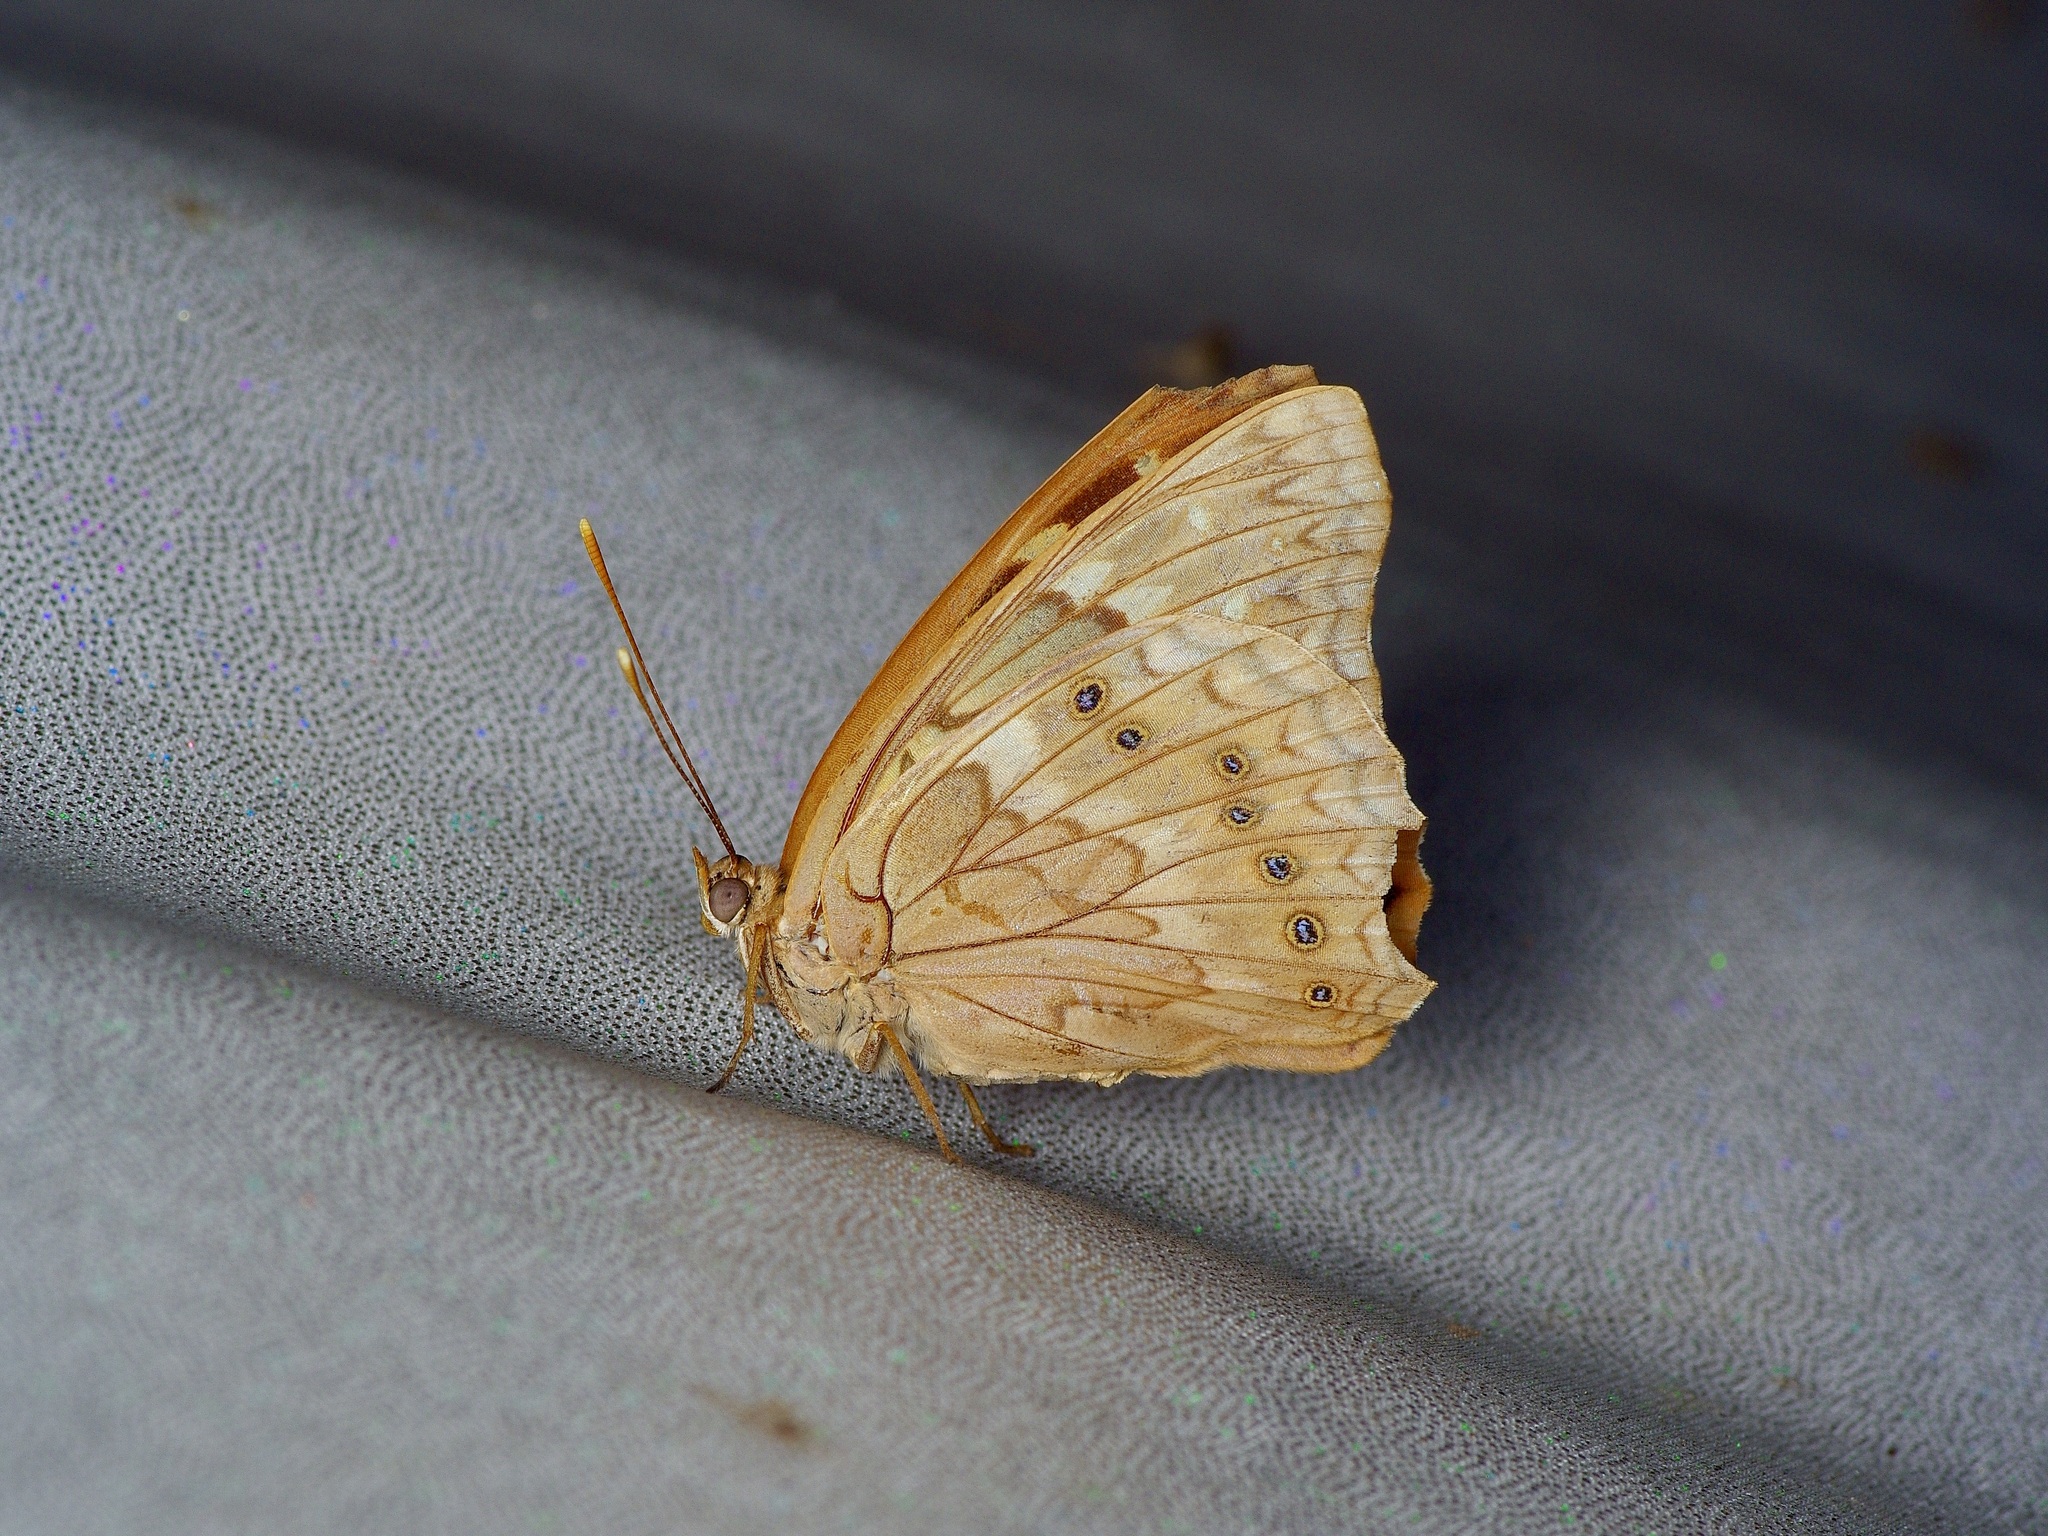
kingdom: Animalia
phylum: Arthropoda
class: Insecta
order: Lepidoptera
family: Nymphalidae
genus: Asterocampa
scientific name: Asterocampa clyton
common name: Tawny emperor
